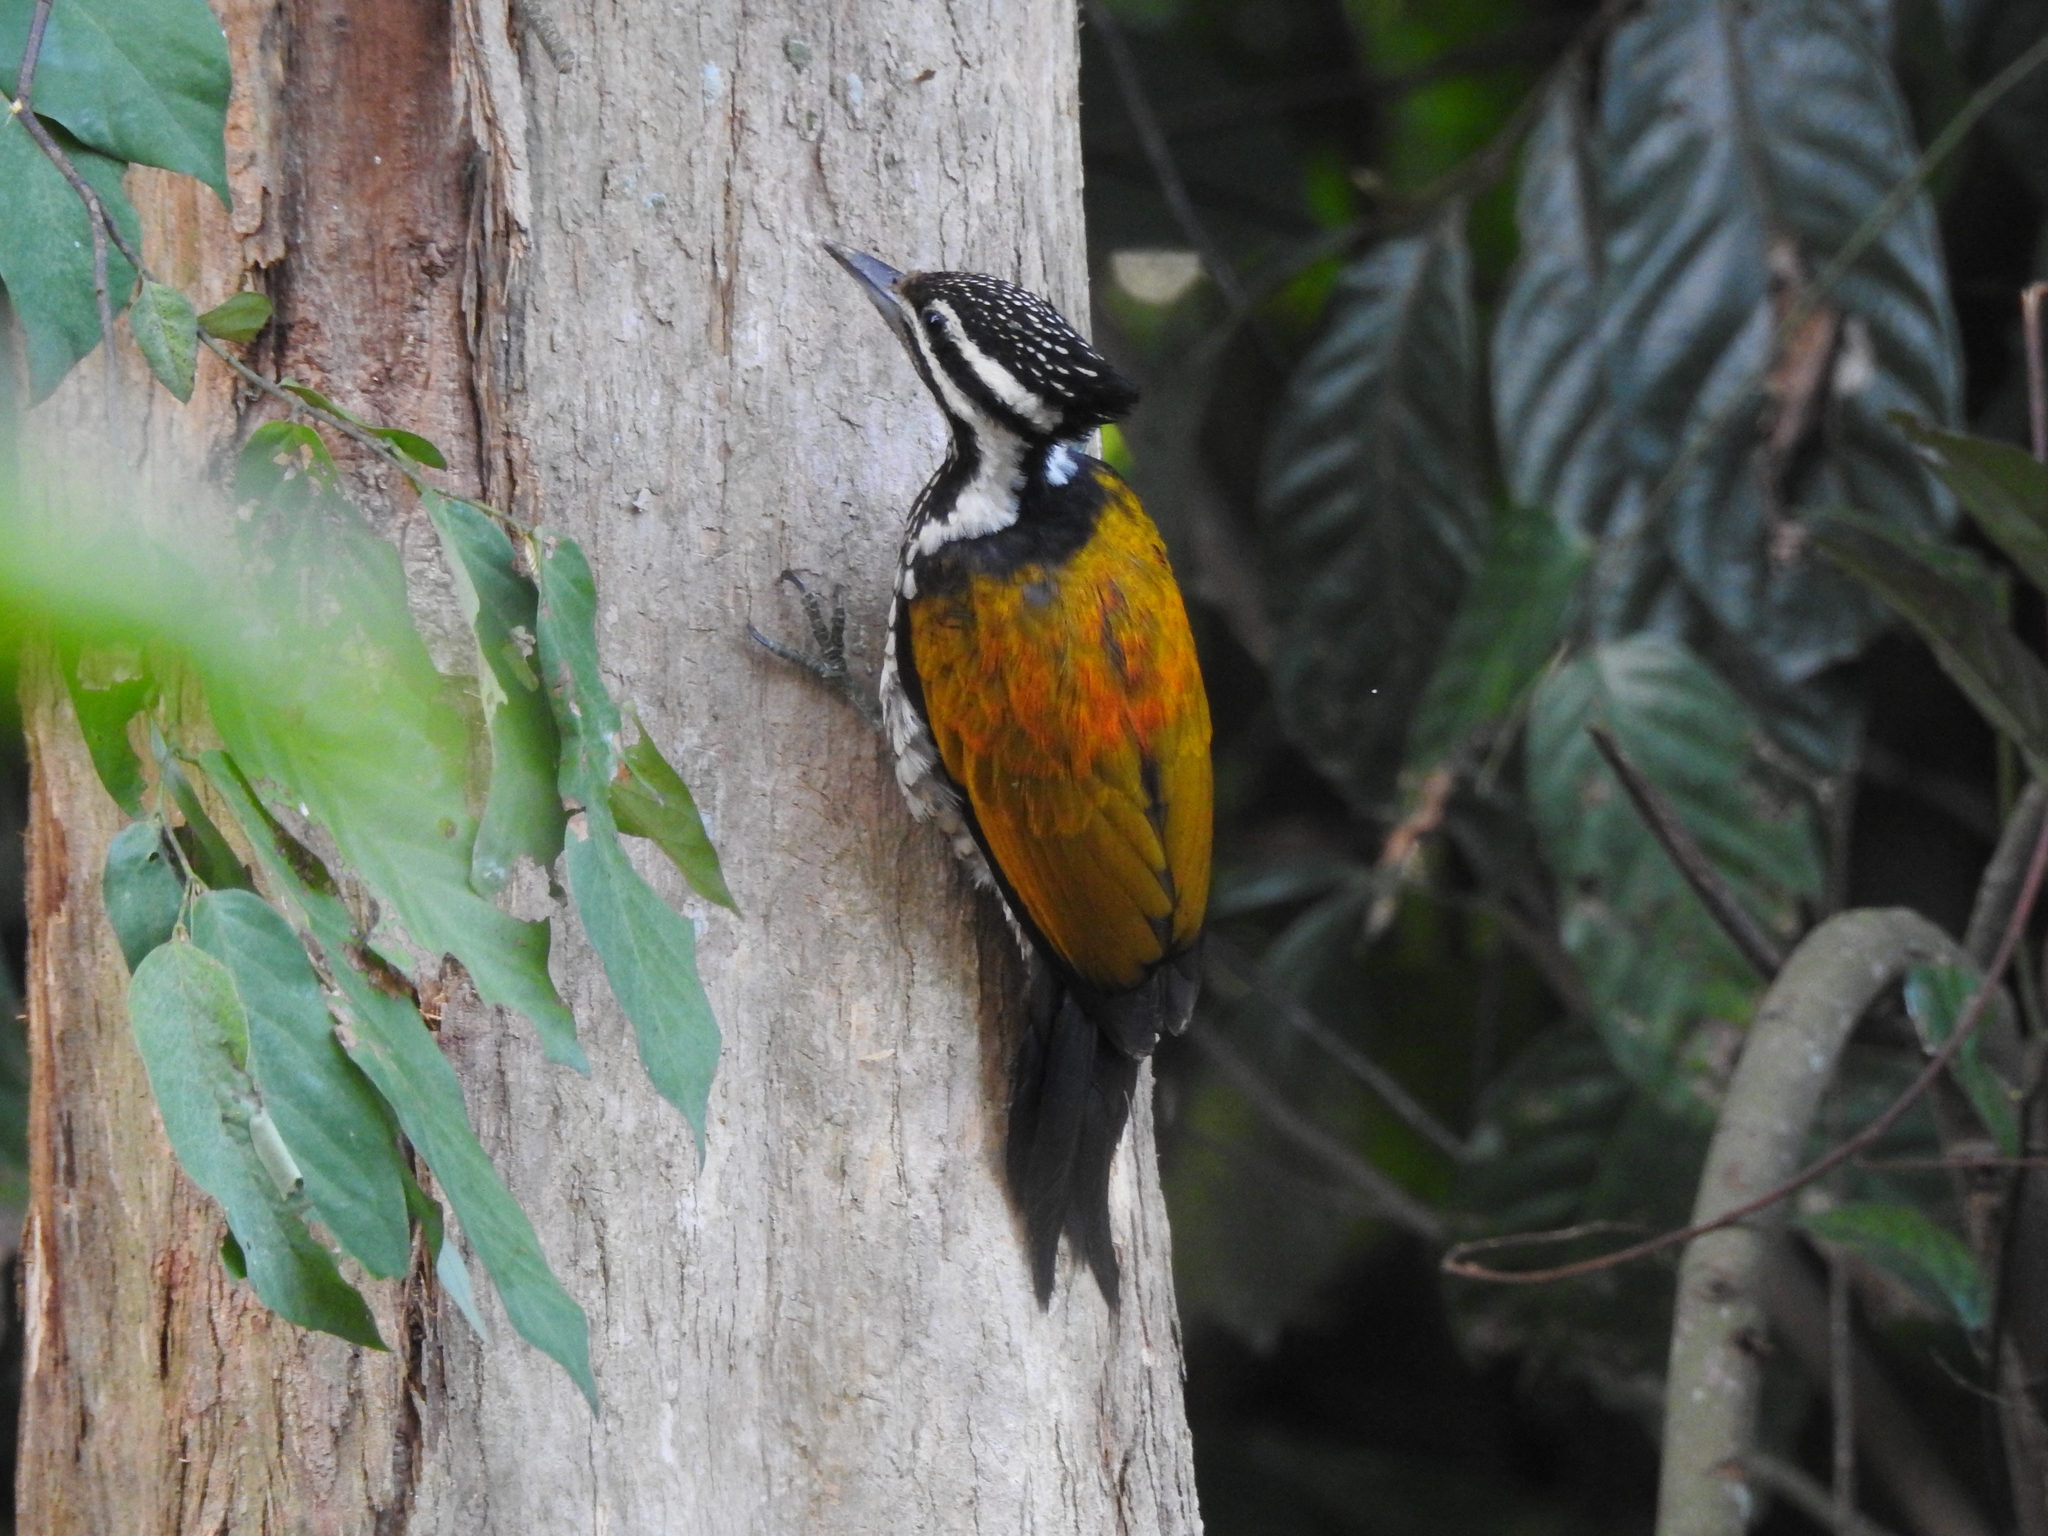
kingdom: Animalia
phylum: Chordata
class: Aves
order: Piciformes
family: Picidae
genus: Dinopium
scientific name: Dinopium javanense
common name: Common flameback
